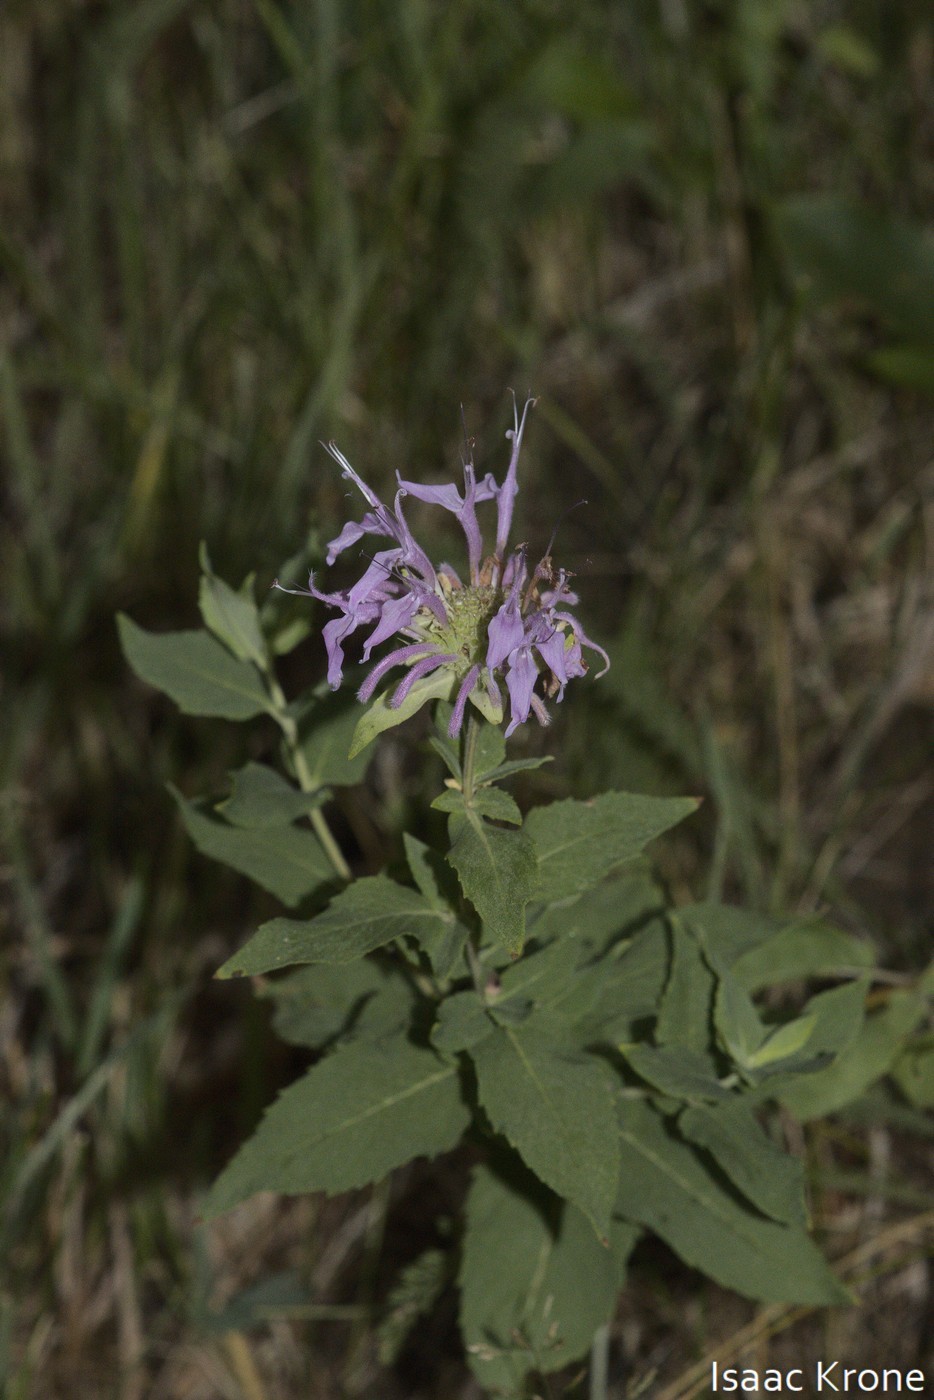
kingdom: Plantae
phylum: Tracheophyta
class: Magnoliopsida
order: Lamiales
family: Lamiaceae
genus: Monarda
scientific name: Monarda fistulosa
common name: Purple beebalm
